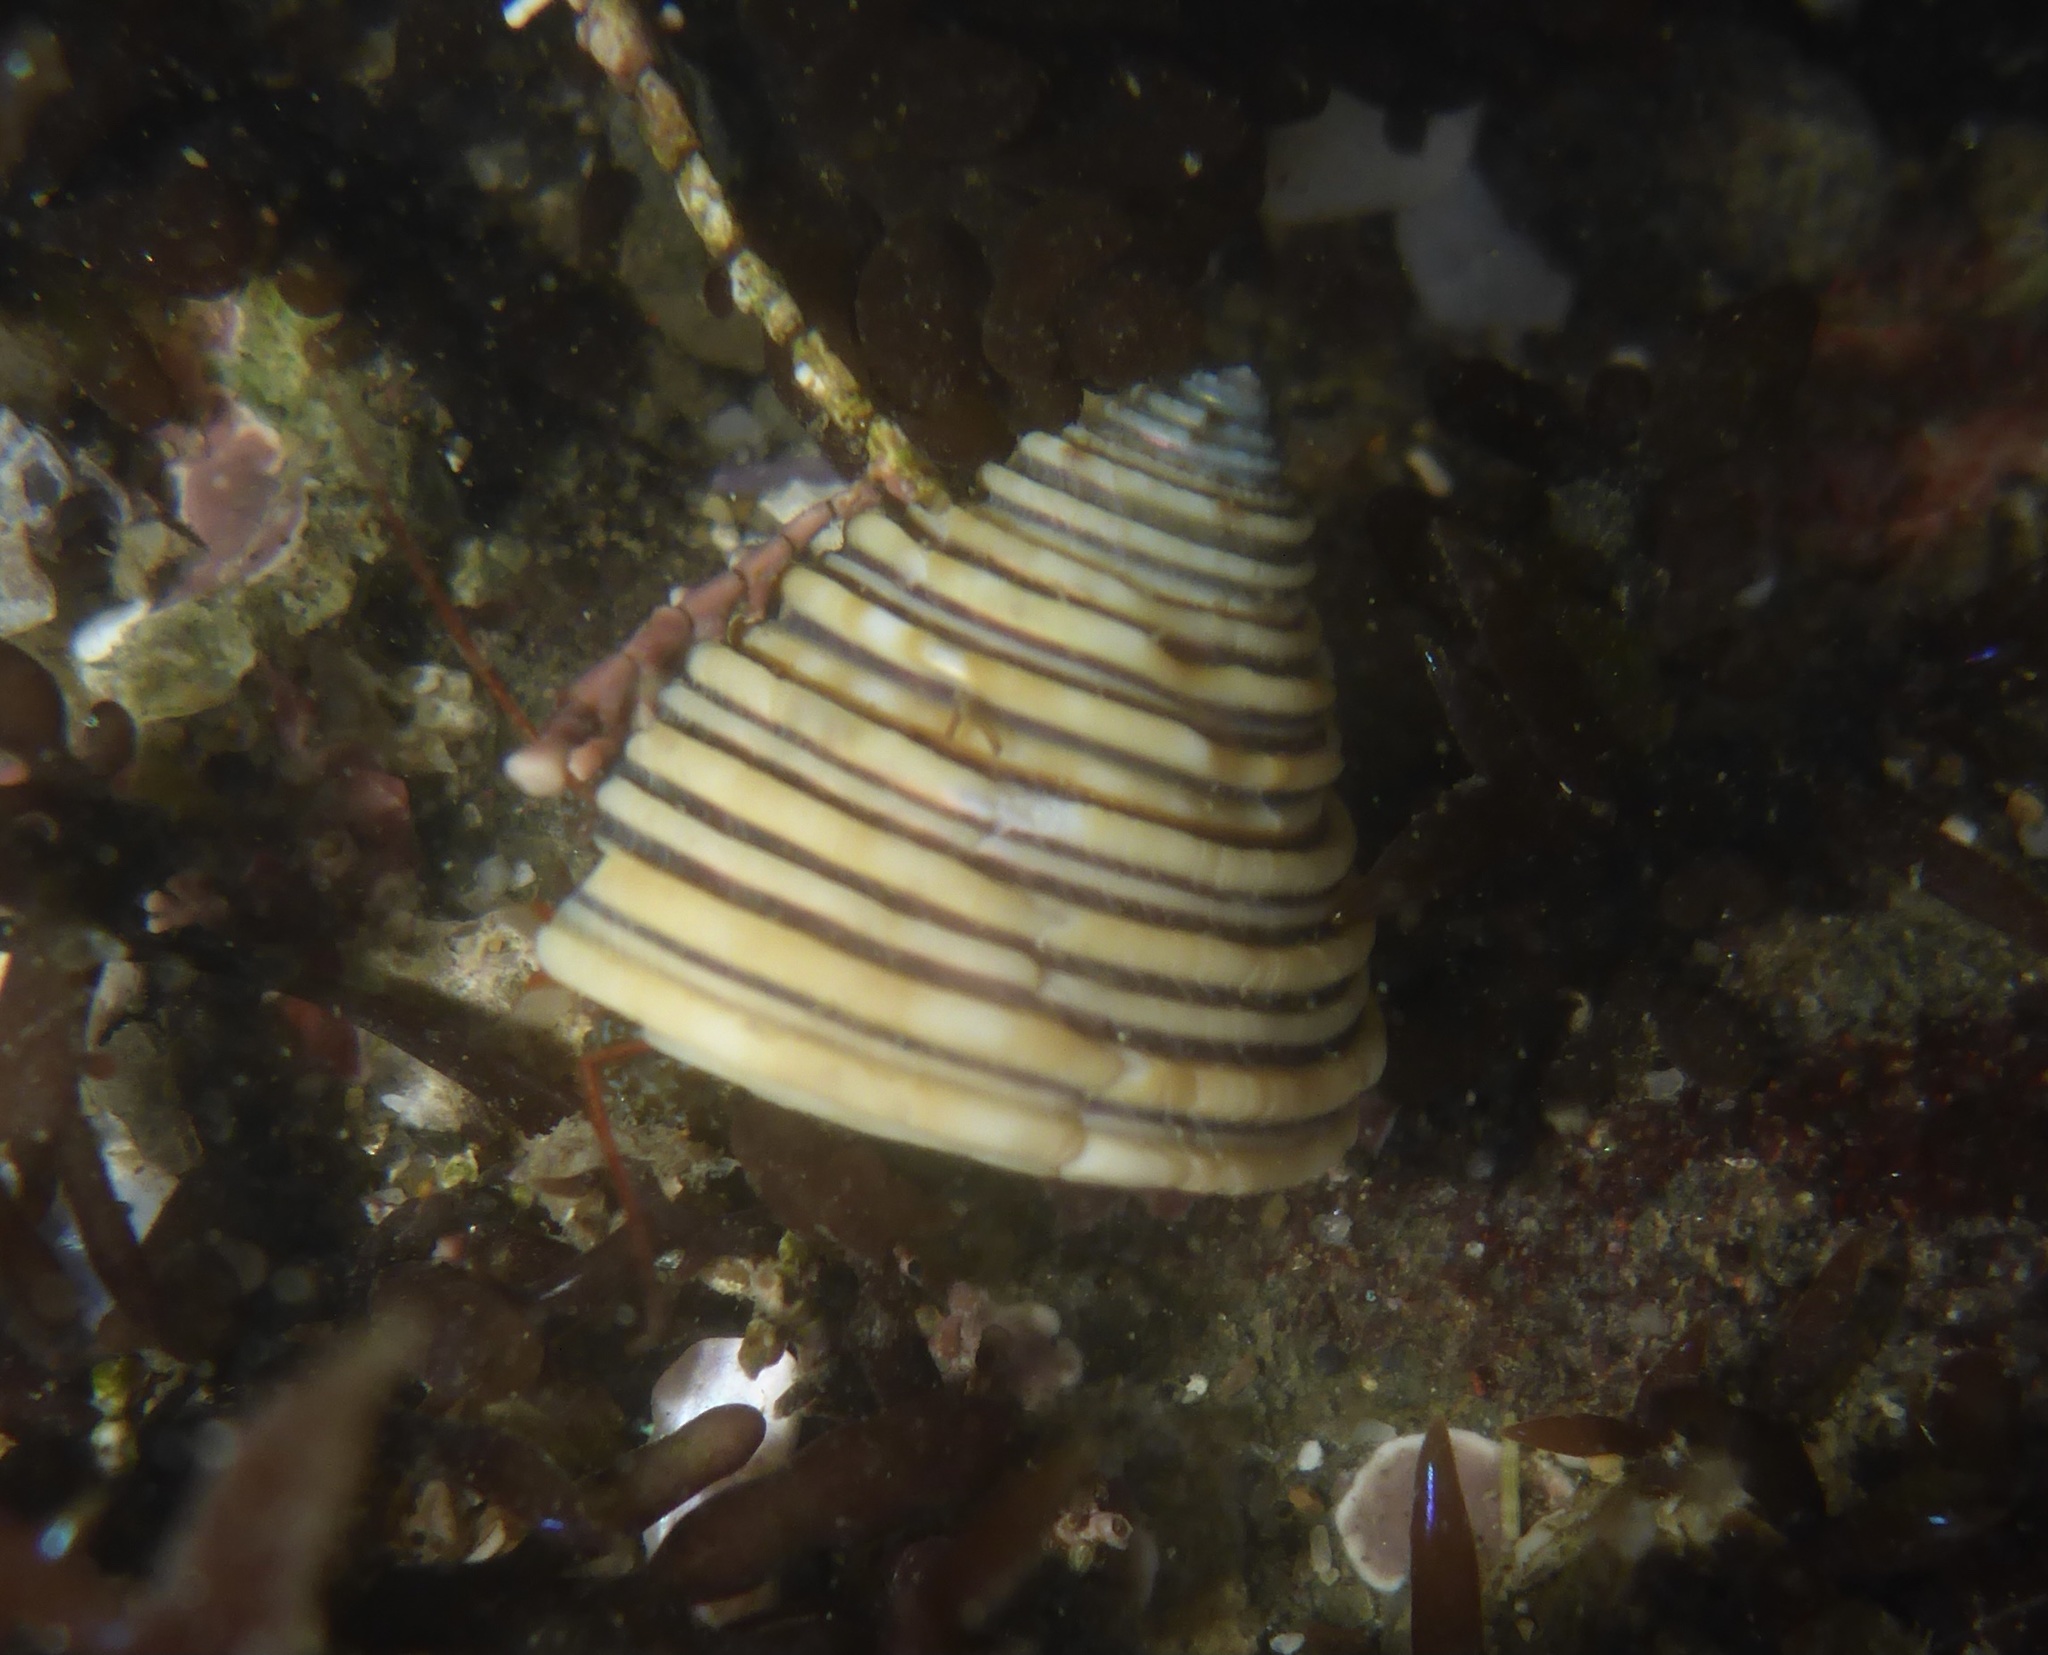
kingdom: Animalia
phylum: Mollusca
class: Gastropoda
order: Trochida
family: Calliostomatidae
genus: Calliostoma
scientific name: Calliostoma canaliculatum
